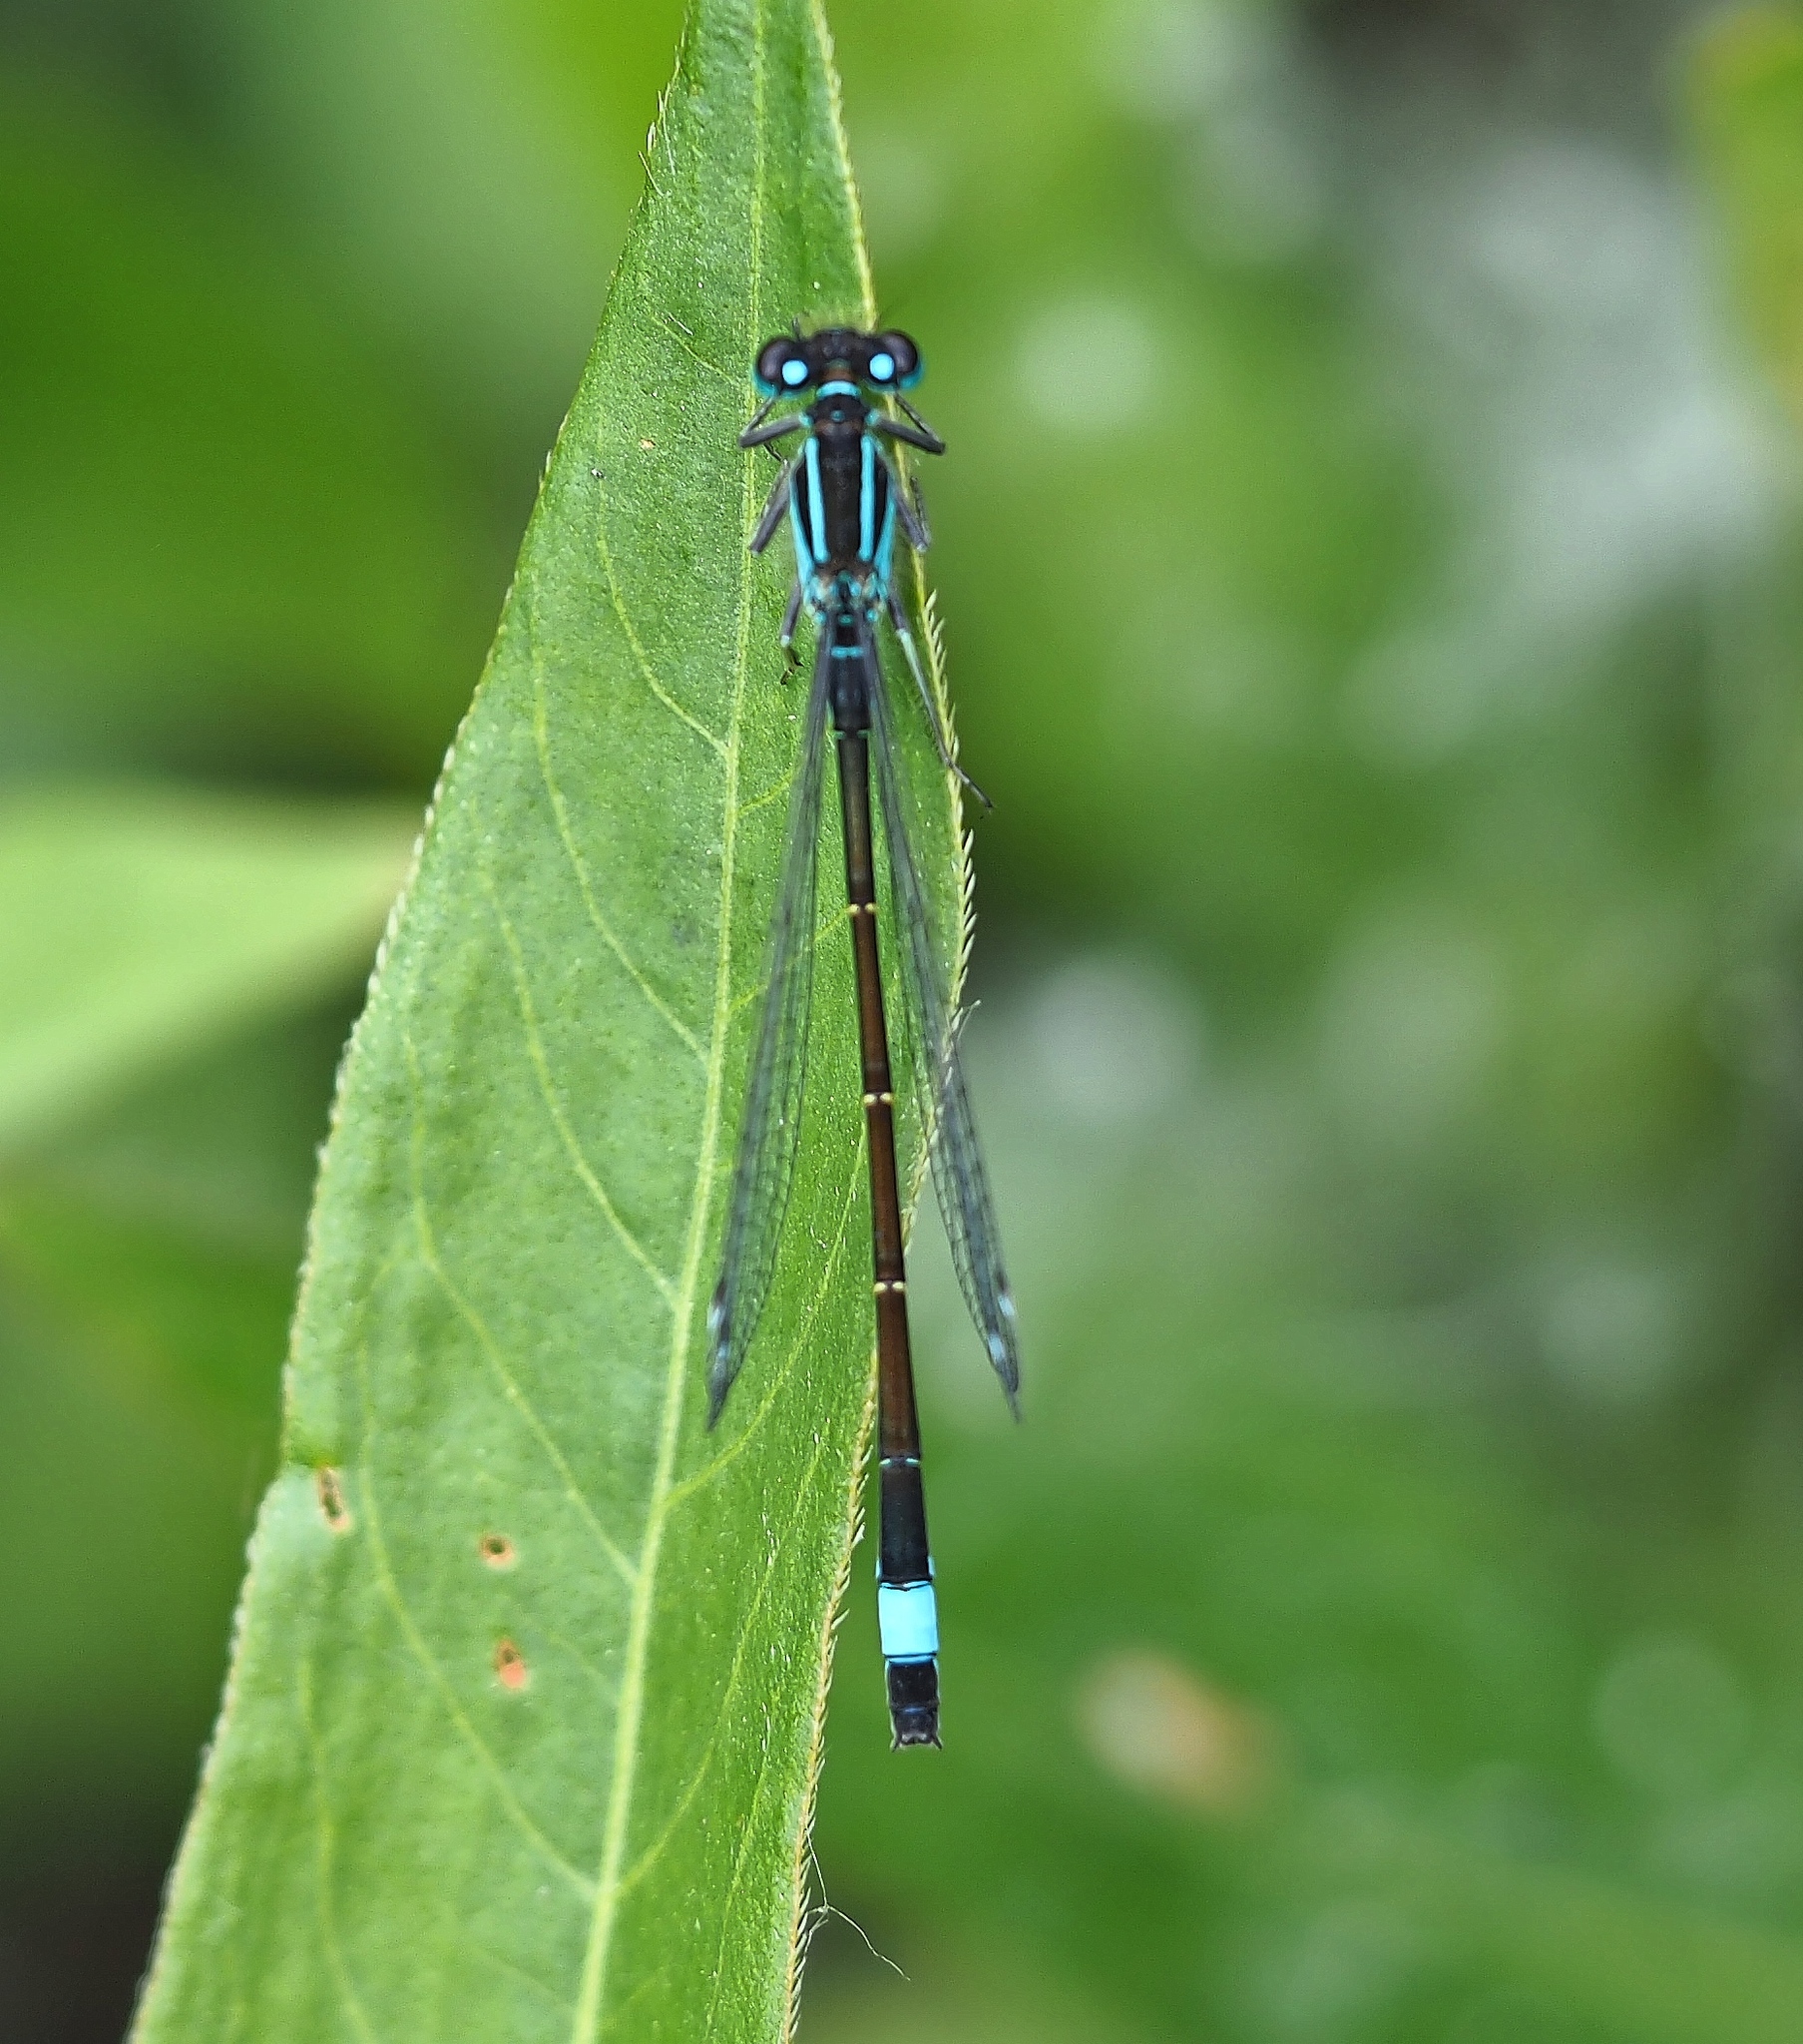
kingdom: Animalia
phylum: Arthropoda
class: Insecta
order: Odonata
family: Coenagrionidae
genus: Ischnura
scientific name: Ischnura elegans
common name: Blue-tailed damselfly
